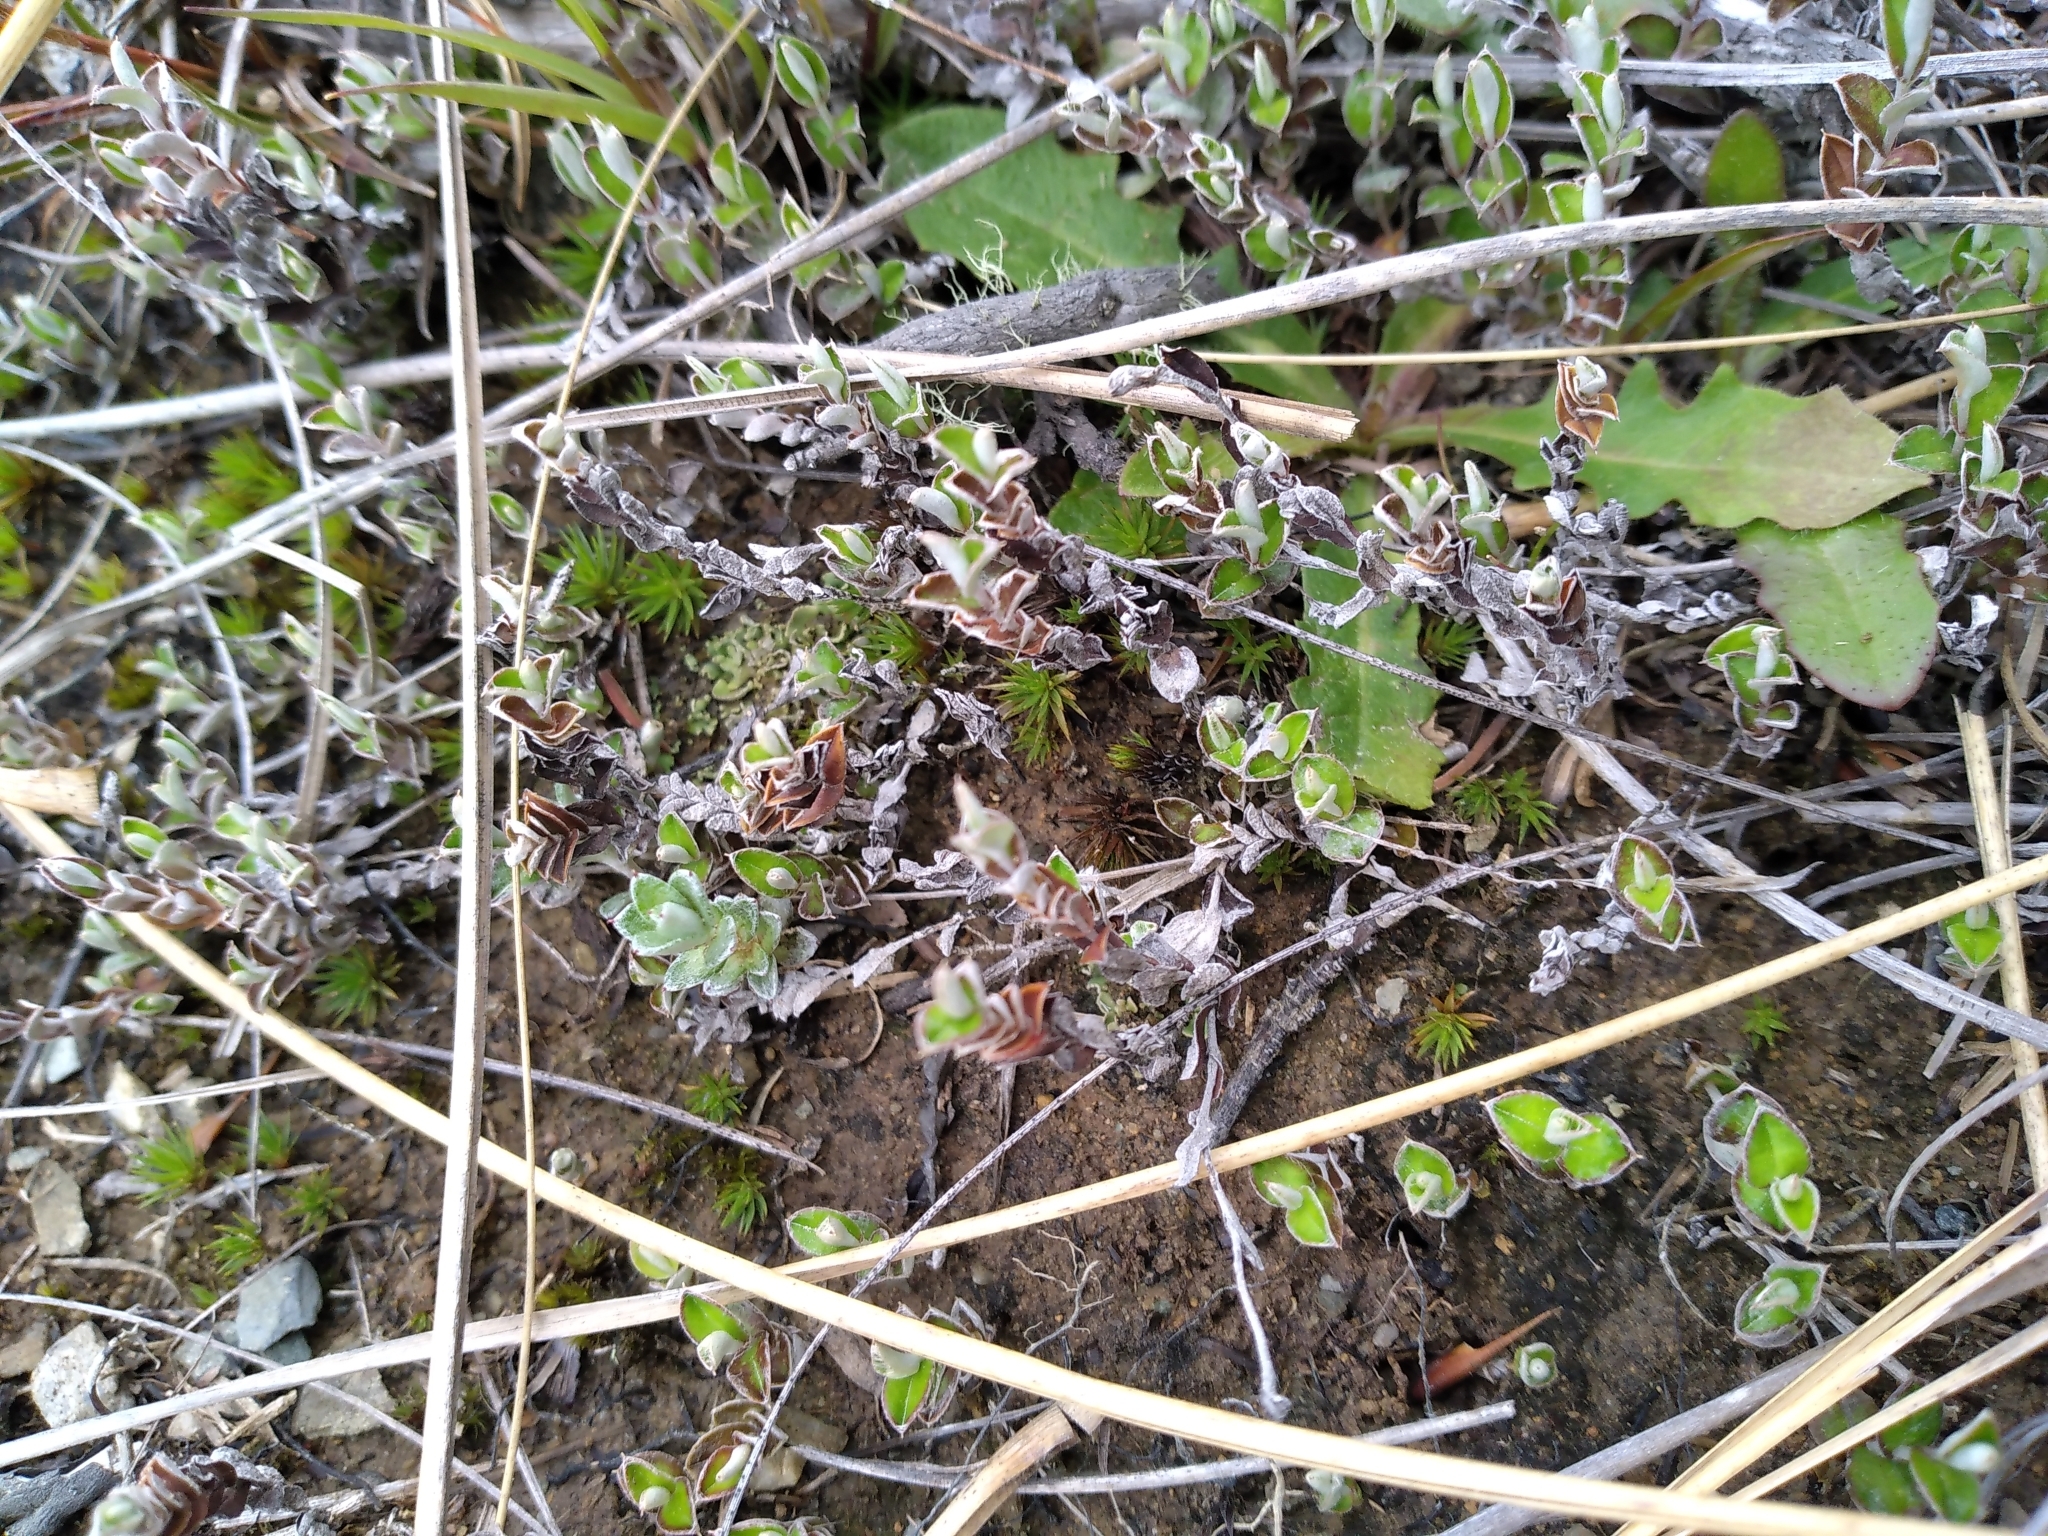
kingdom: Plantae
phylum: Tracheophyta
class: Magnoliopsida
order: Asterales
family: Asteraceae
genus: Helichrysum
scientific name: Helichrysum filicaule
